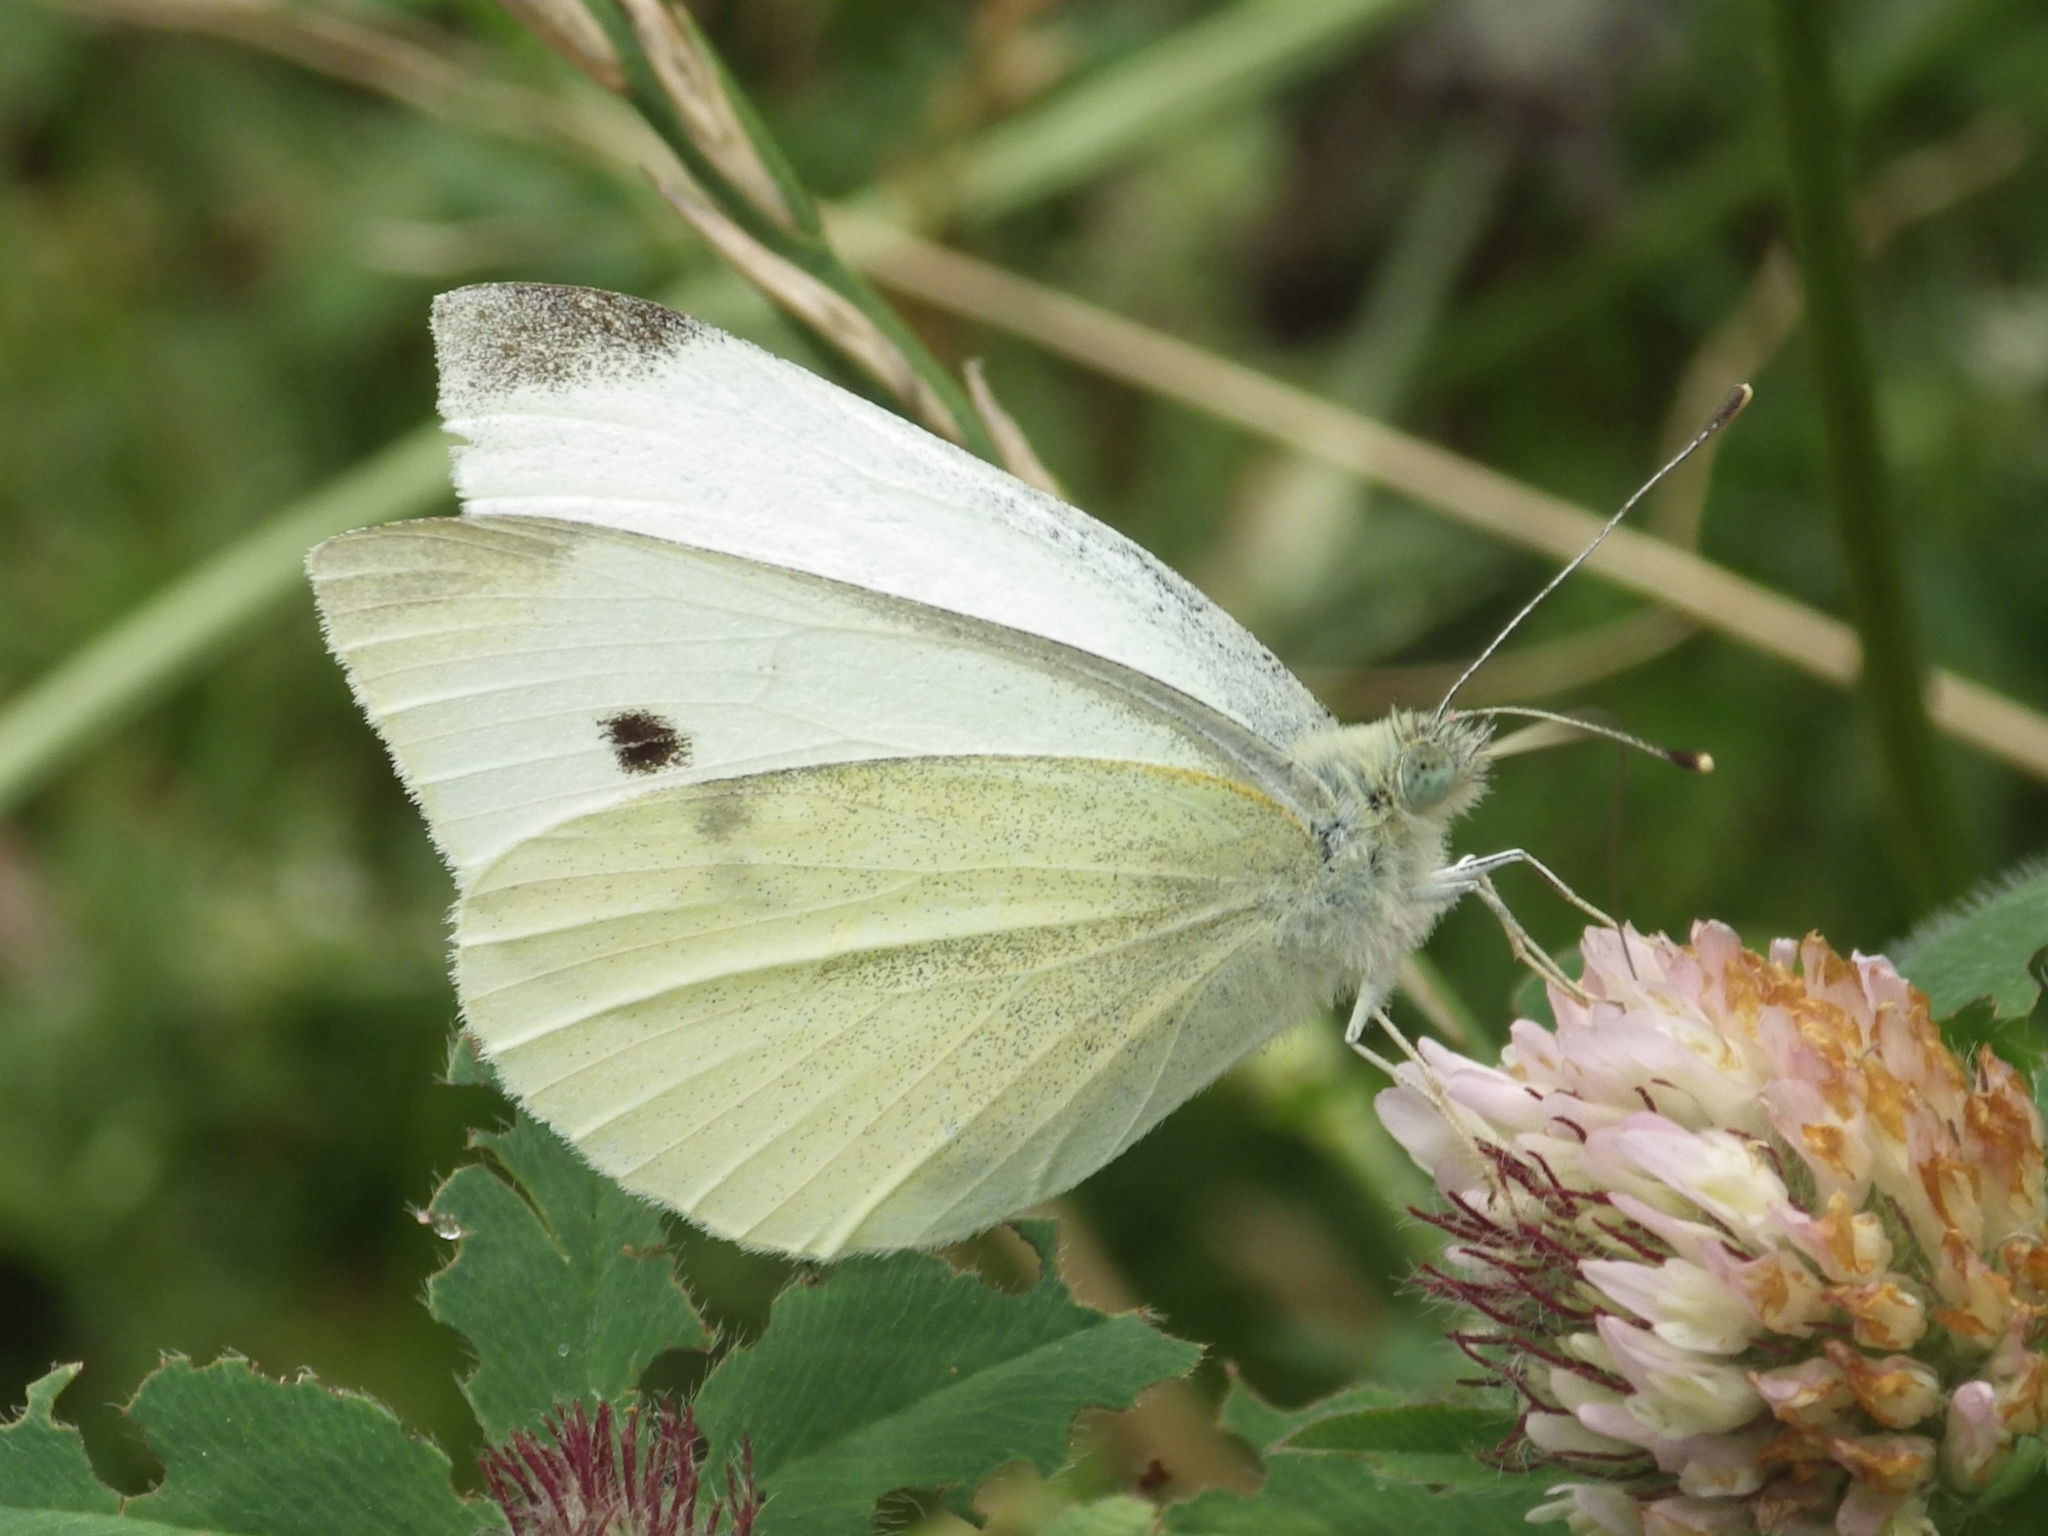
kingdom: Animalia
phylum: Arthropoda
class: Insecta
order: Lepidoptera
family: Pieridae
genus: Pieris
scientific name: Pieris rapae
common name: Small white
